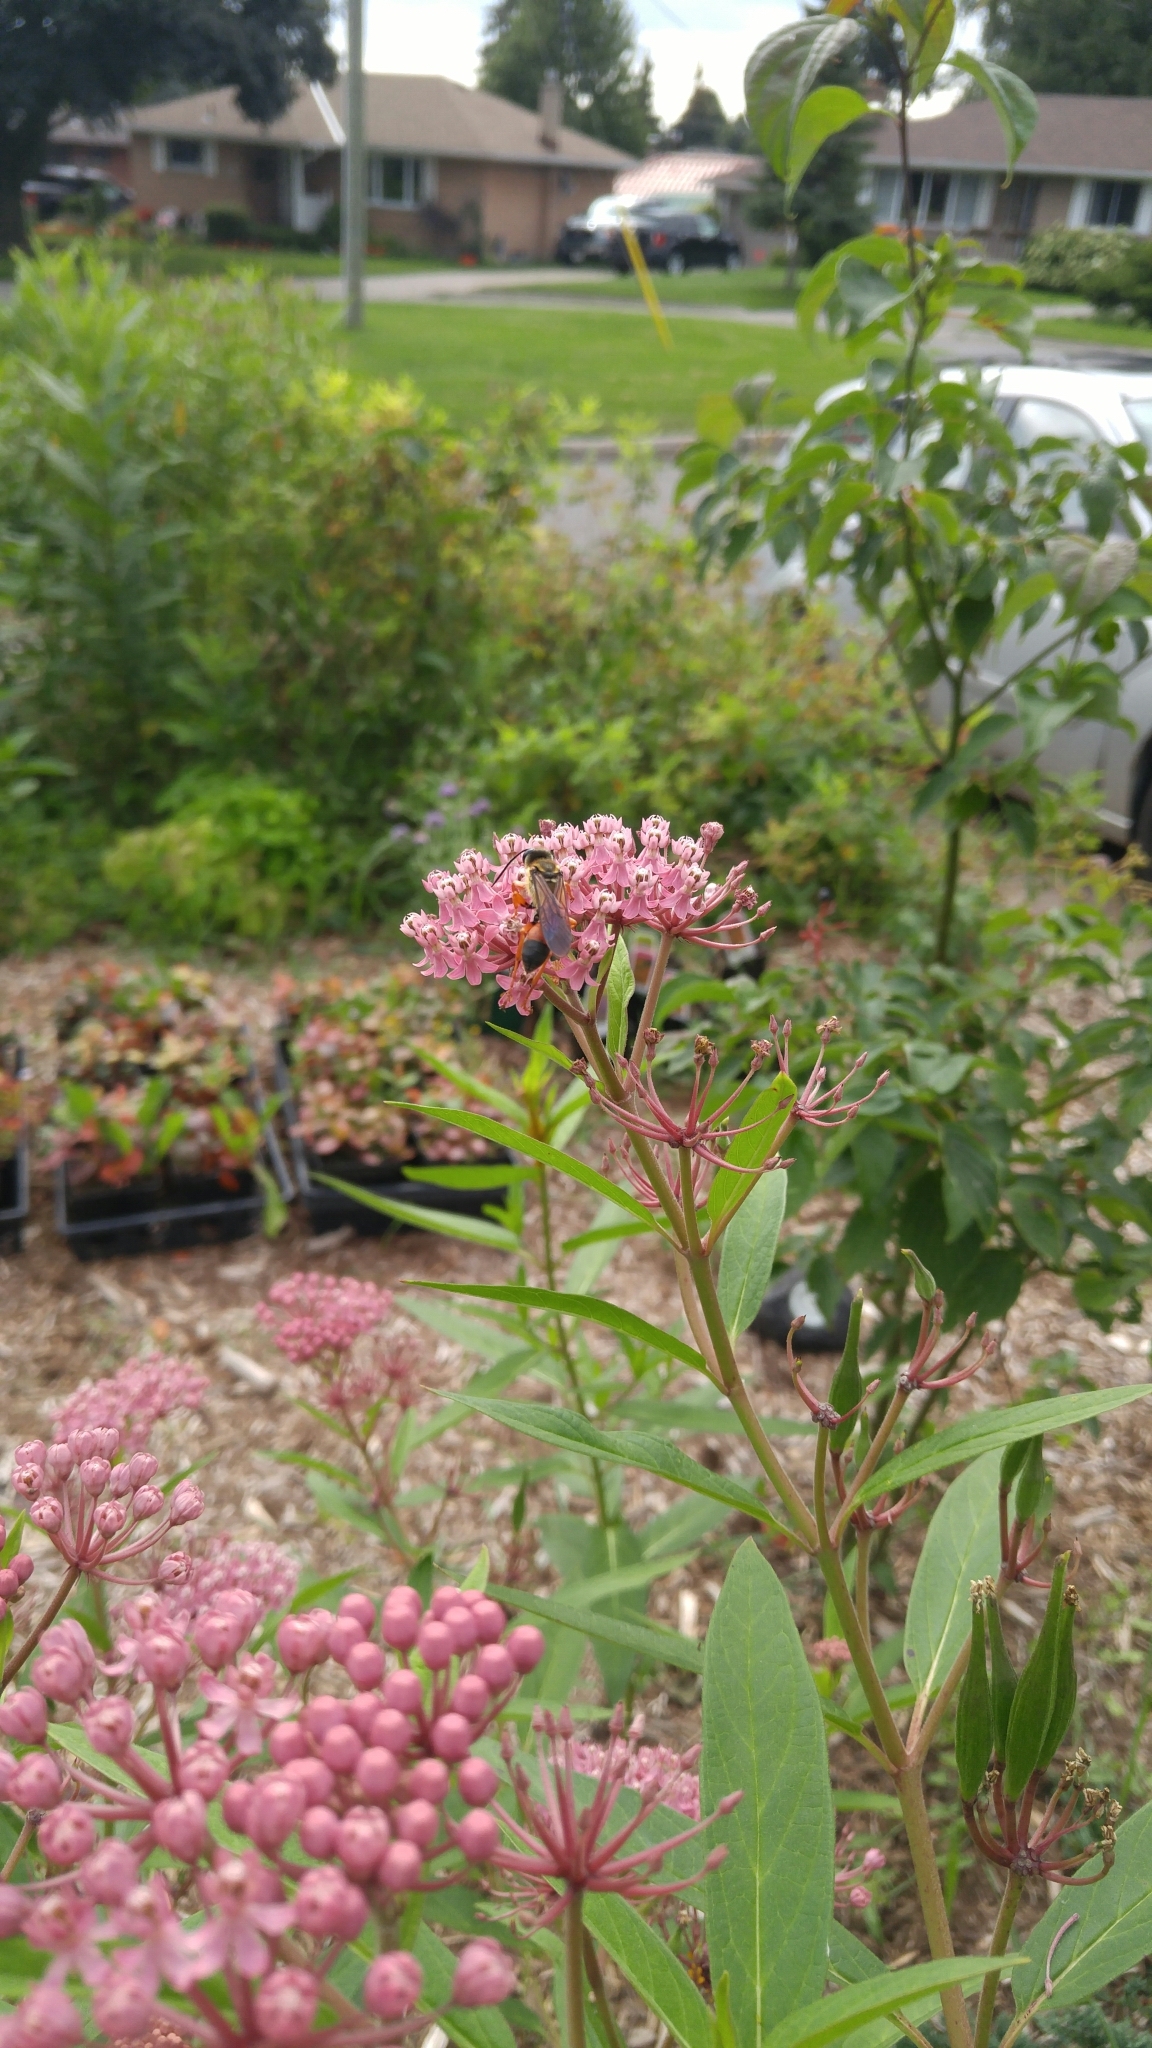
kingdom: Animalia
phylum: Arthropoda
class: Insecta
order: Hymenoptera
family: Sphecidae
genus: Sphex
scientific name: Sphex ichneumoneus
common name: Great golden digger wasp
